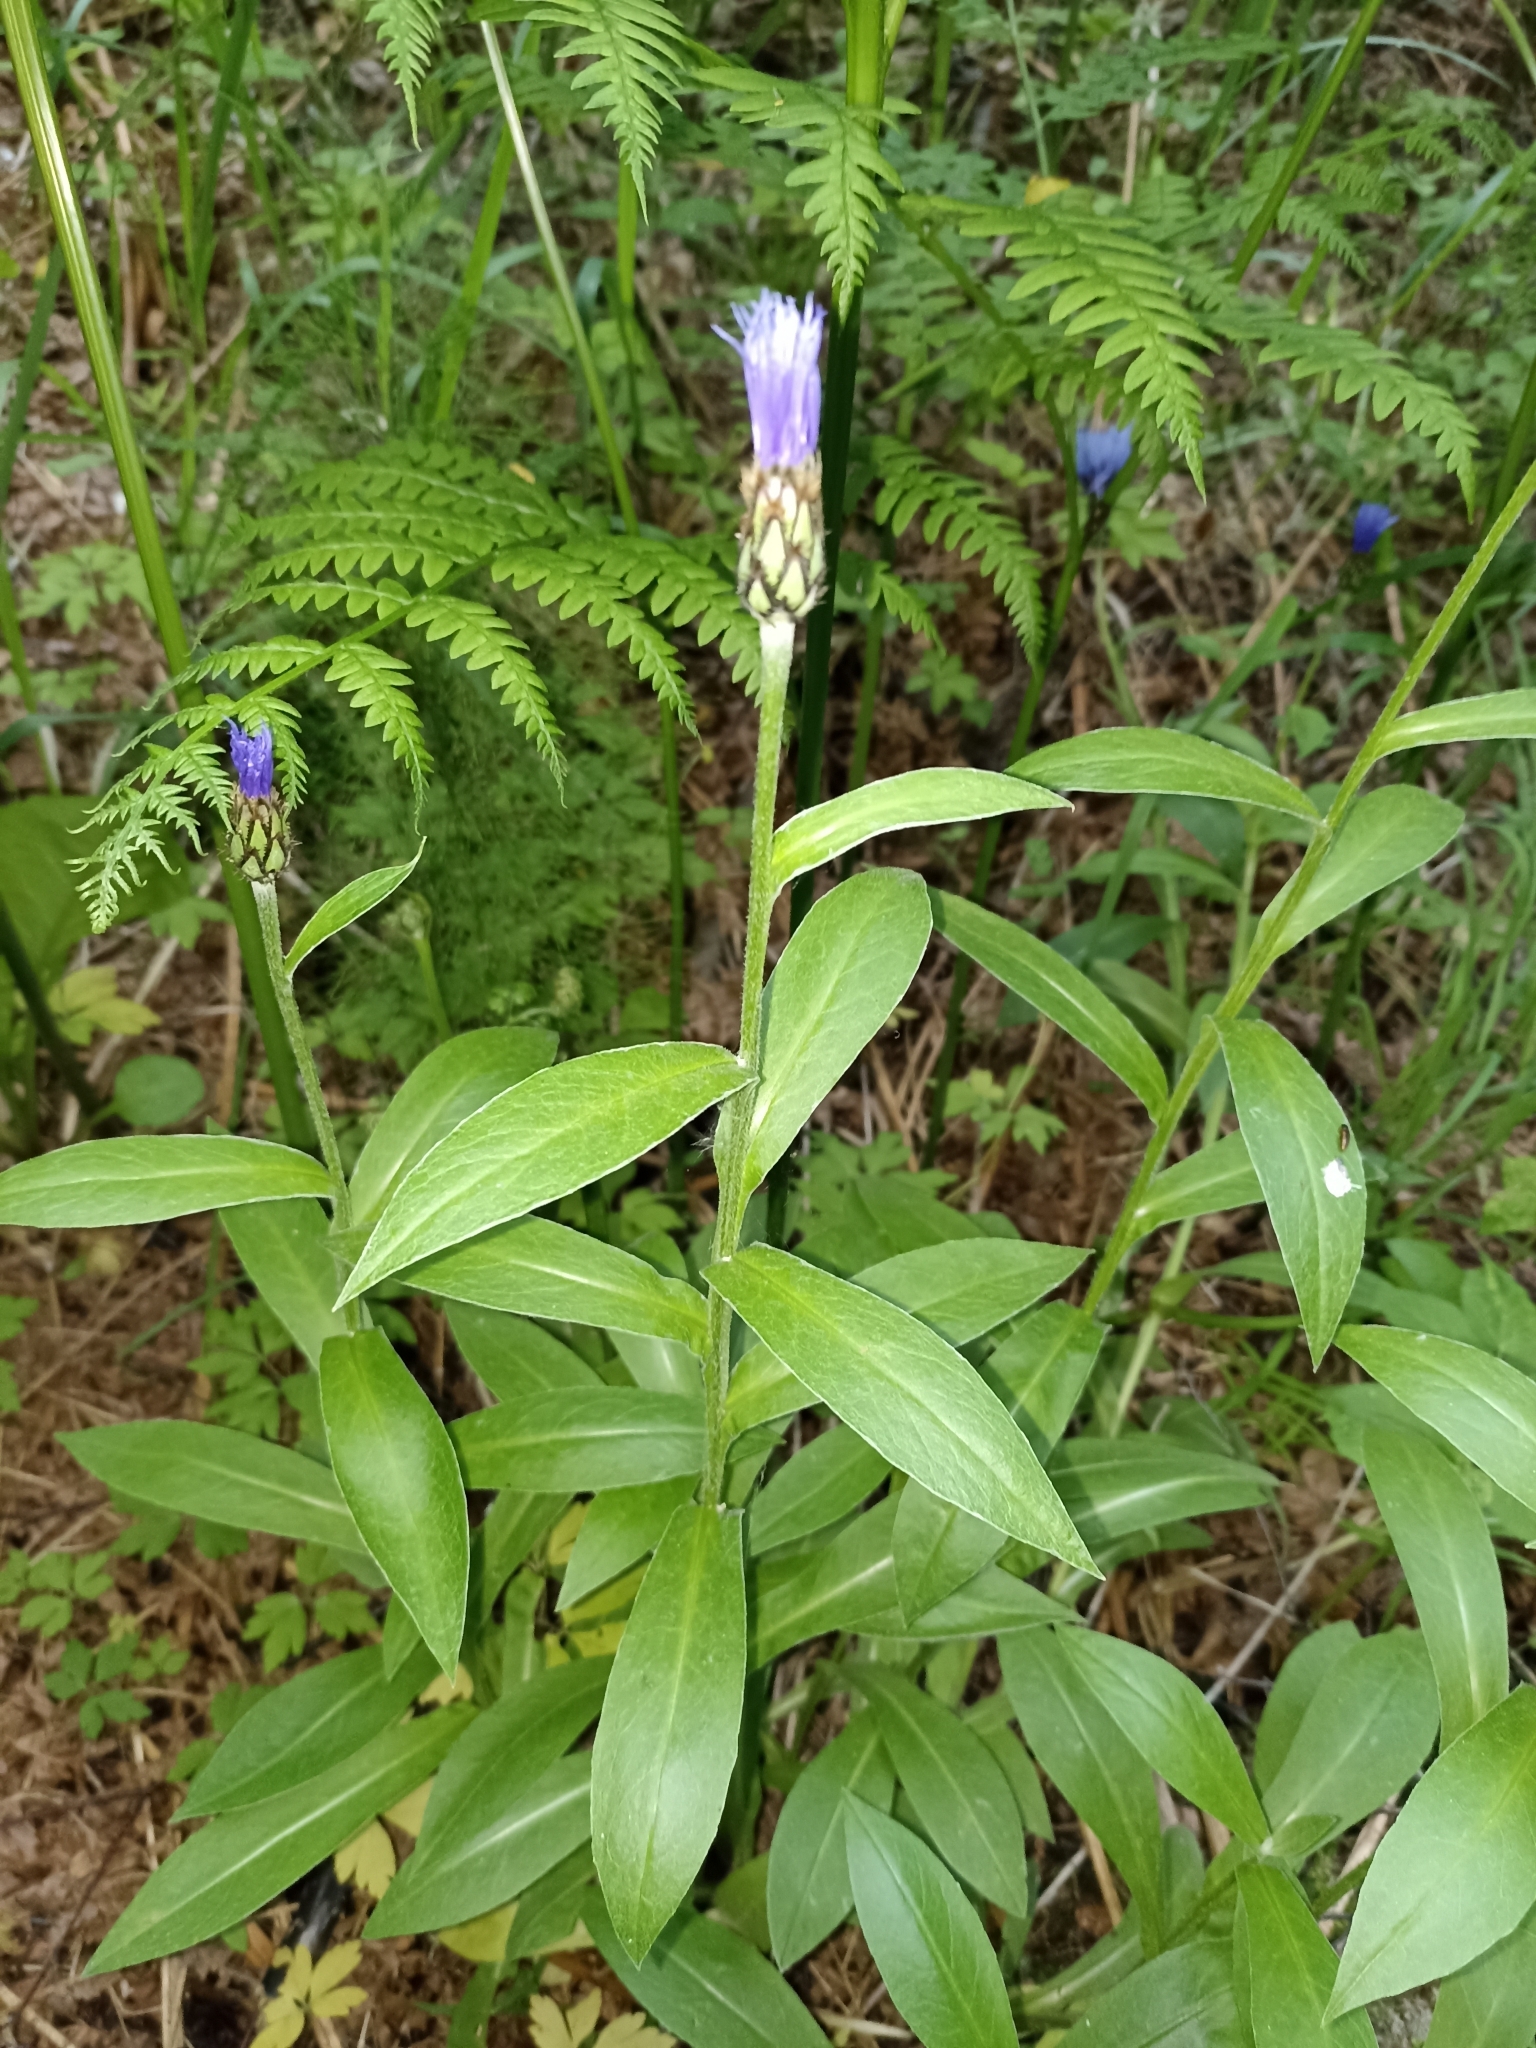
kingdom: Plantae
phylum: Tracheophyta
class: Magnoliopsida
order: Asterales
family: Asteraceae
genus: Centaurea
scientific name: Centaurea montana
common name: Perennial cornflower
